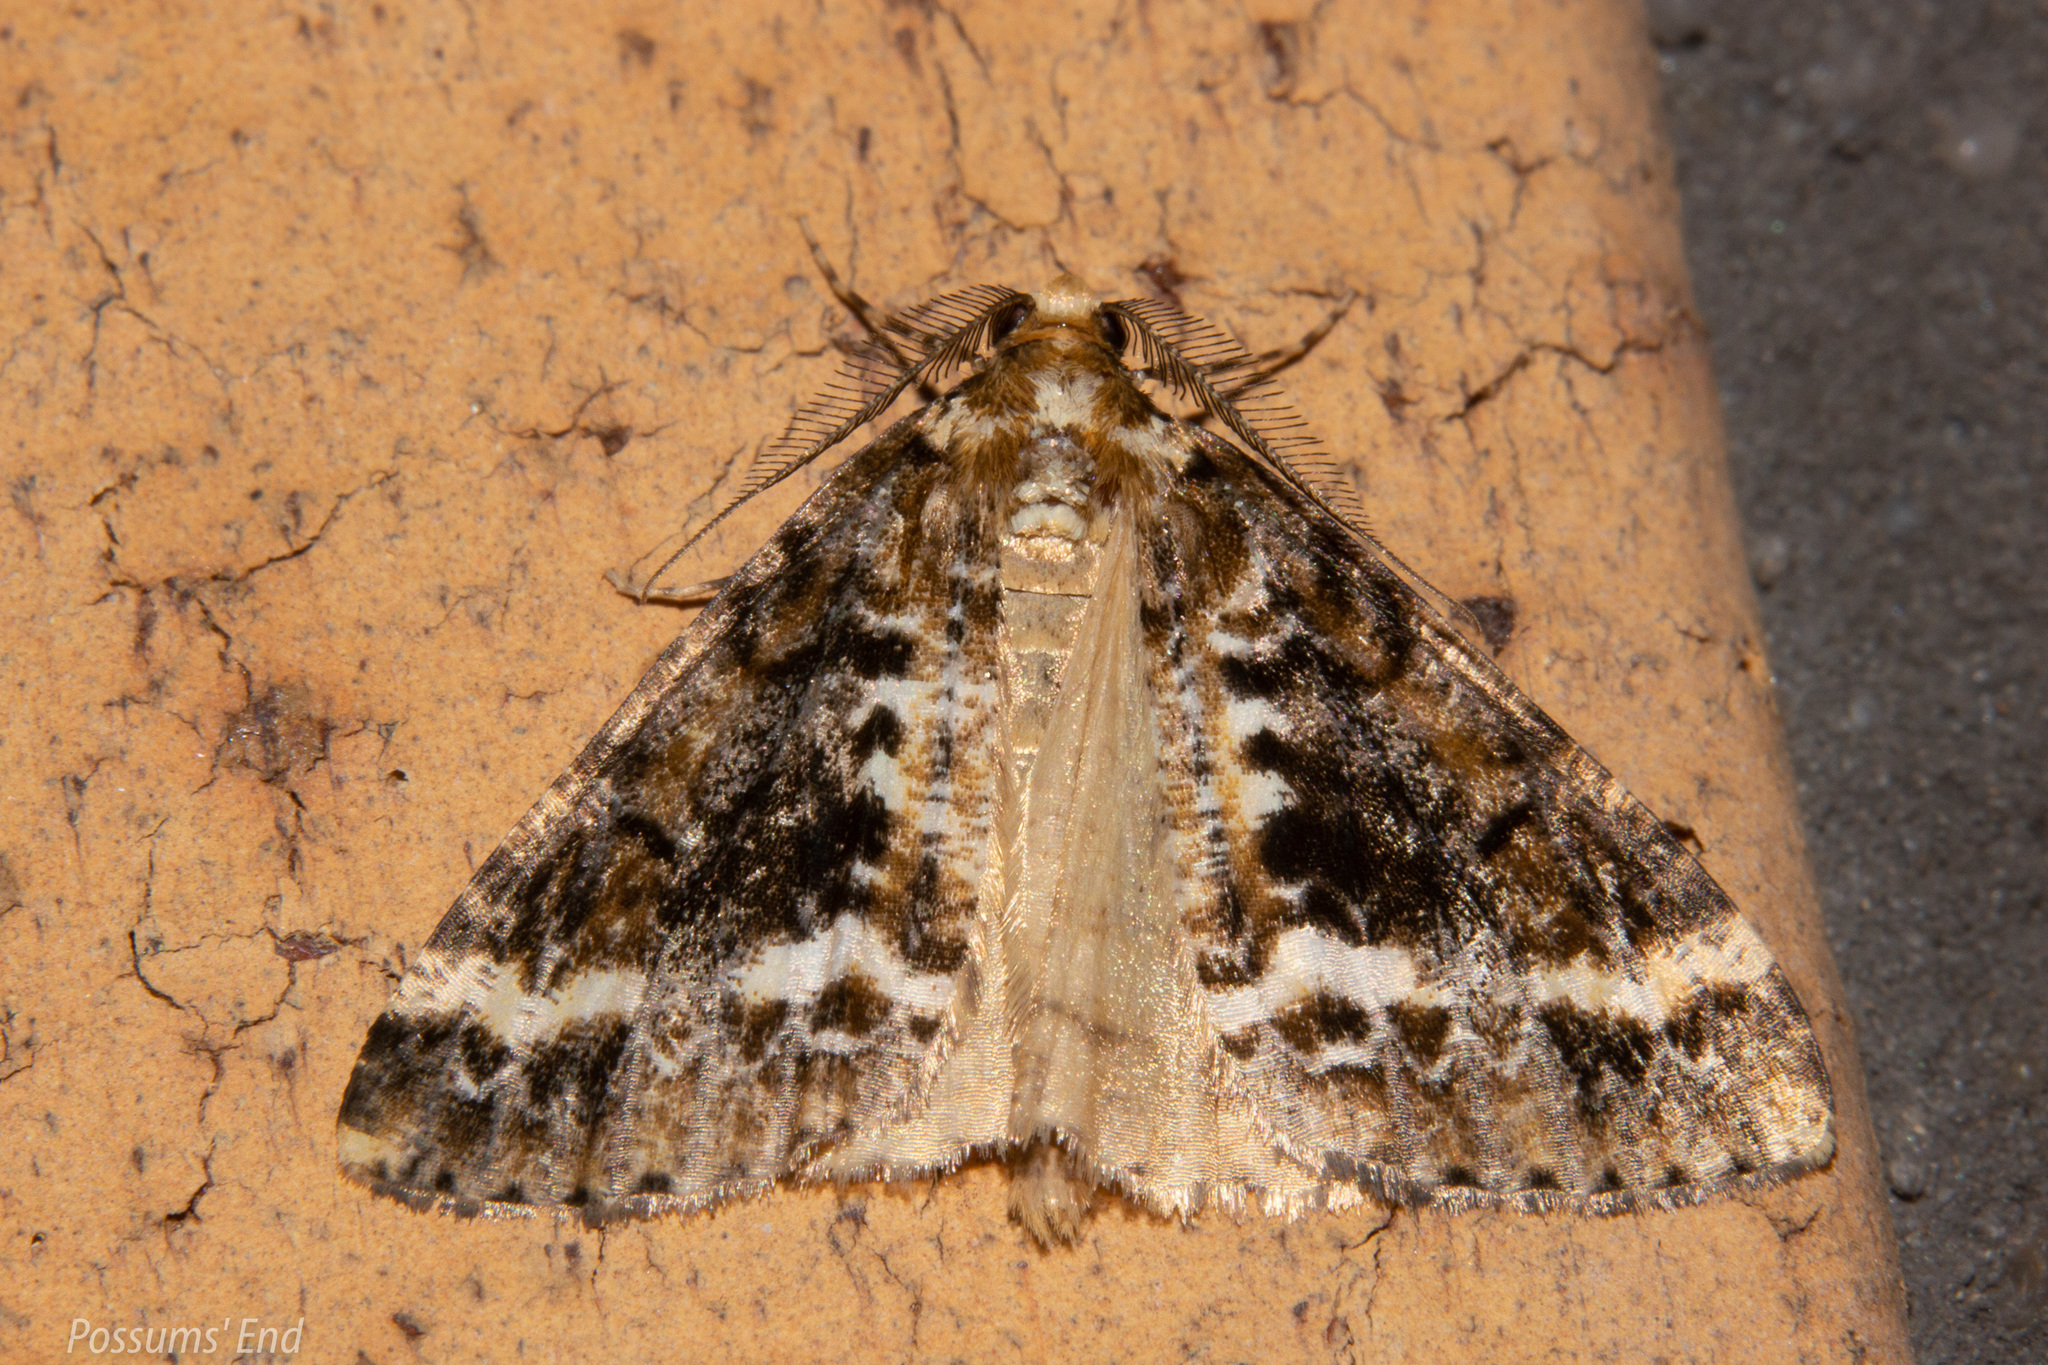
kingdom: Animalia
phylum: Arthropoda
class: Insecta
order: Lepidoptera
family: Geometridae
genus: Pseudocoremia
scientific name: Pseudocoremia leucelaea
